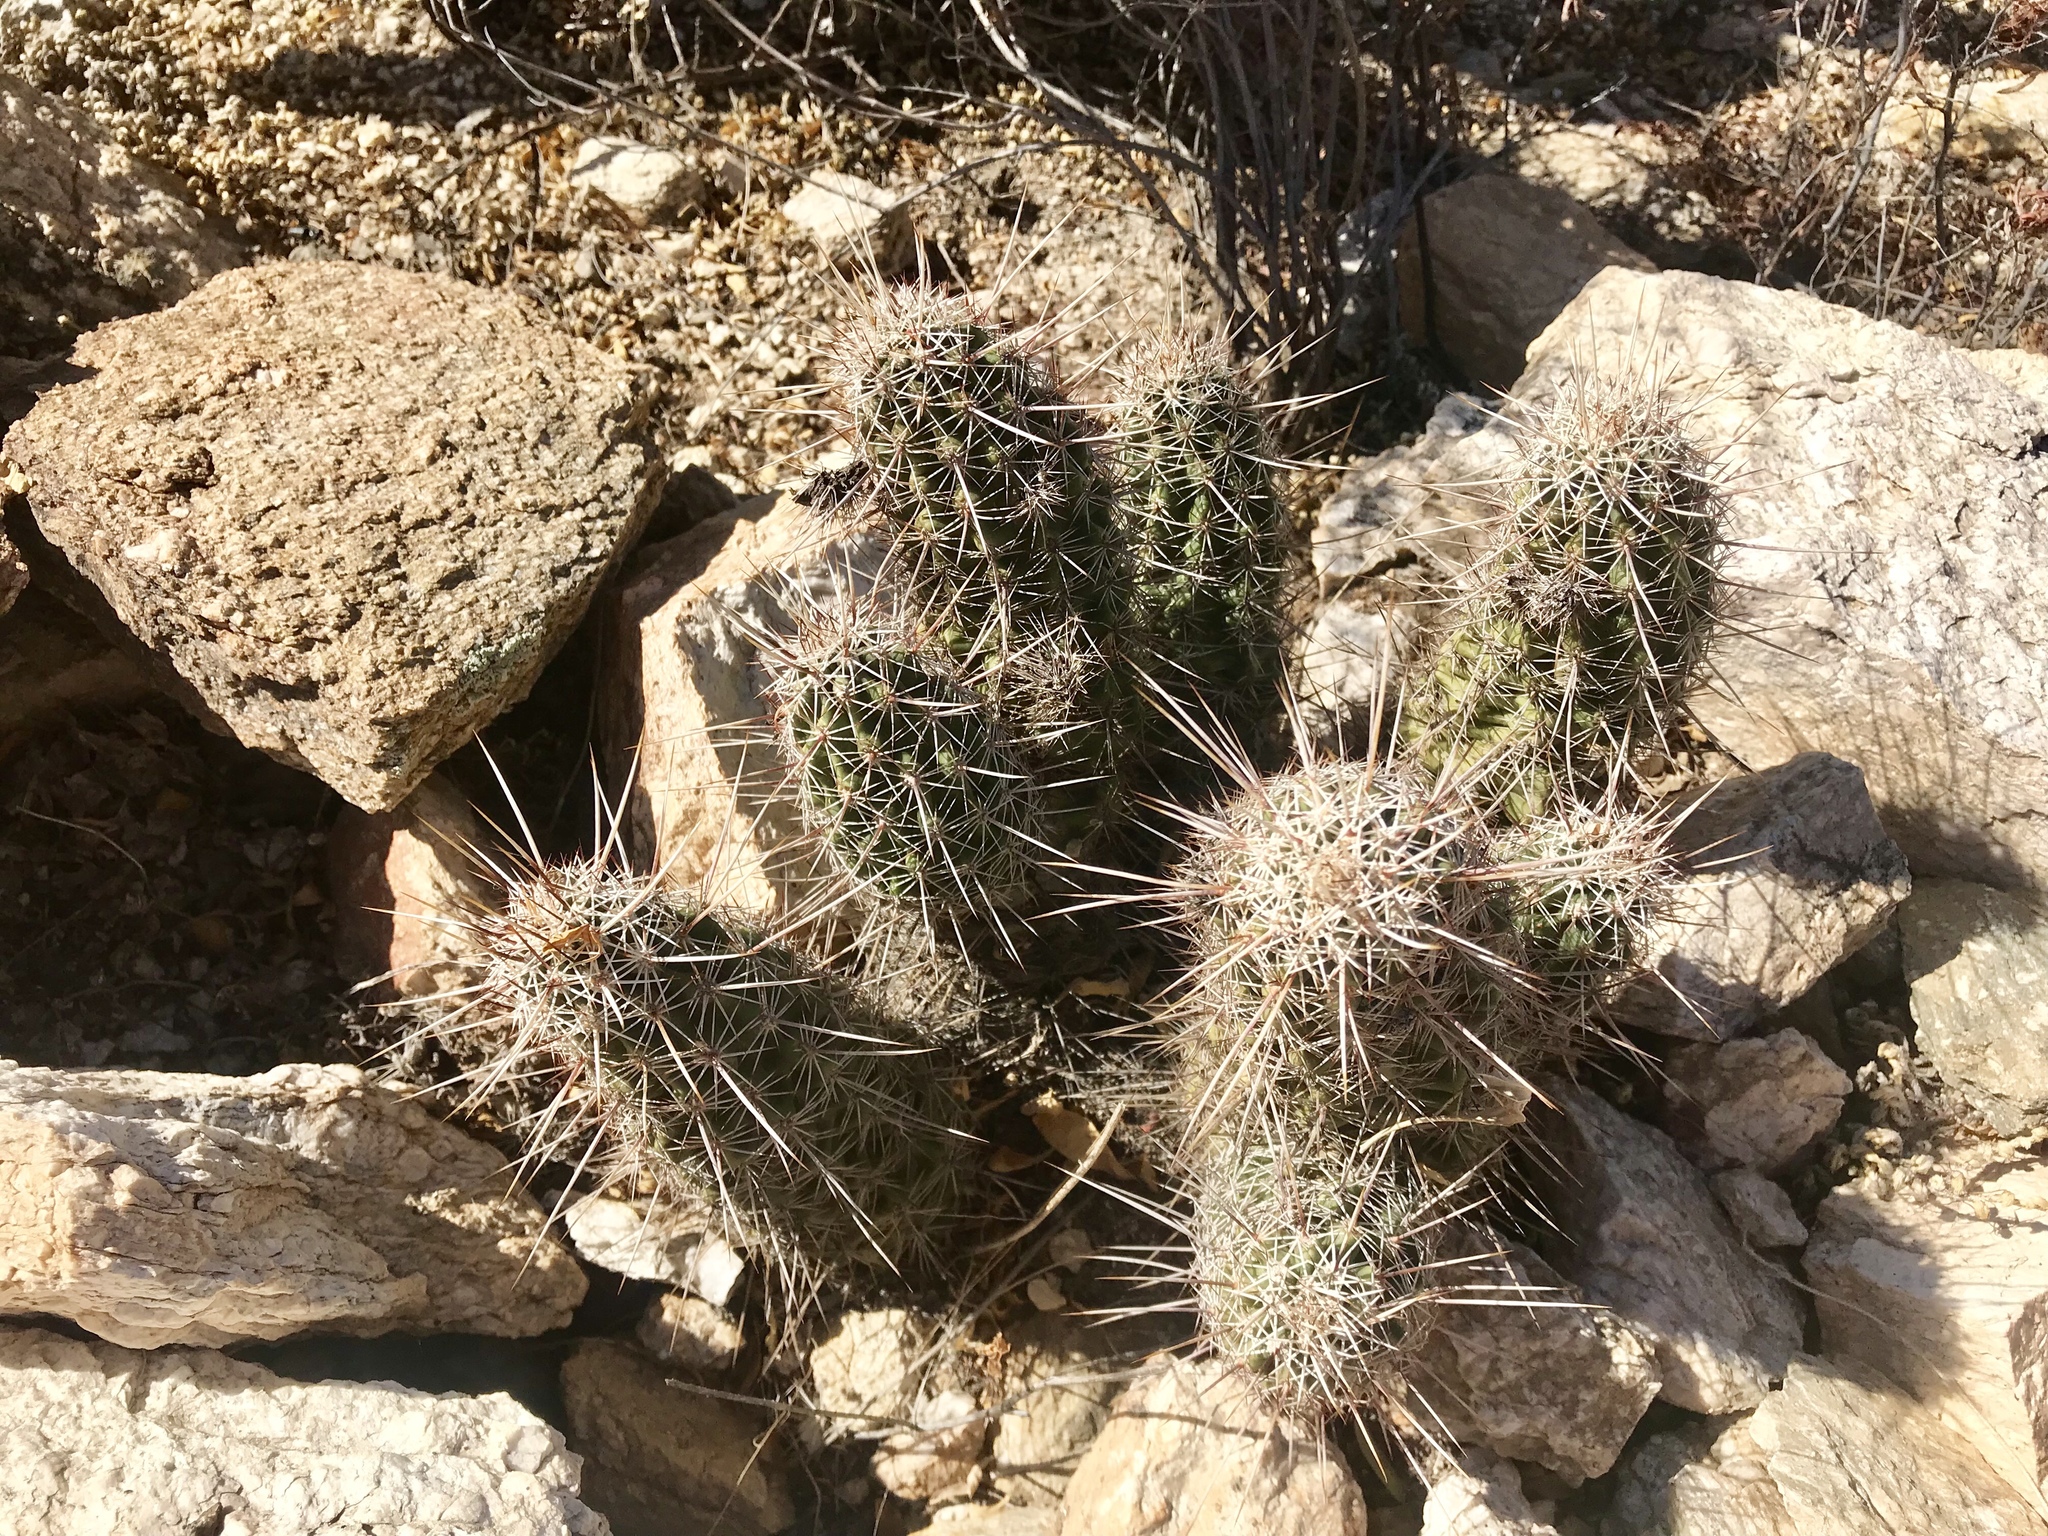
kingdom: Plantae
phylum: Tracheophyta
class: Magnoliopsida
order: Caryophyllales
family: Cactaceae
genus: Echinocereus
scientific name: Echinocereus fasciculatus
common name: Bundle hedgehog
